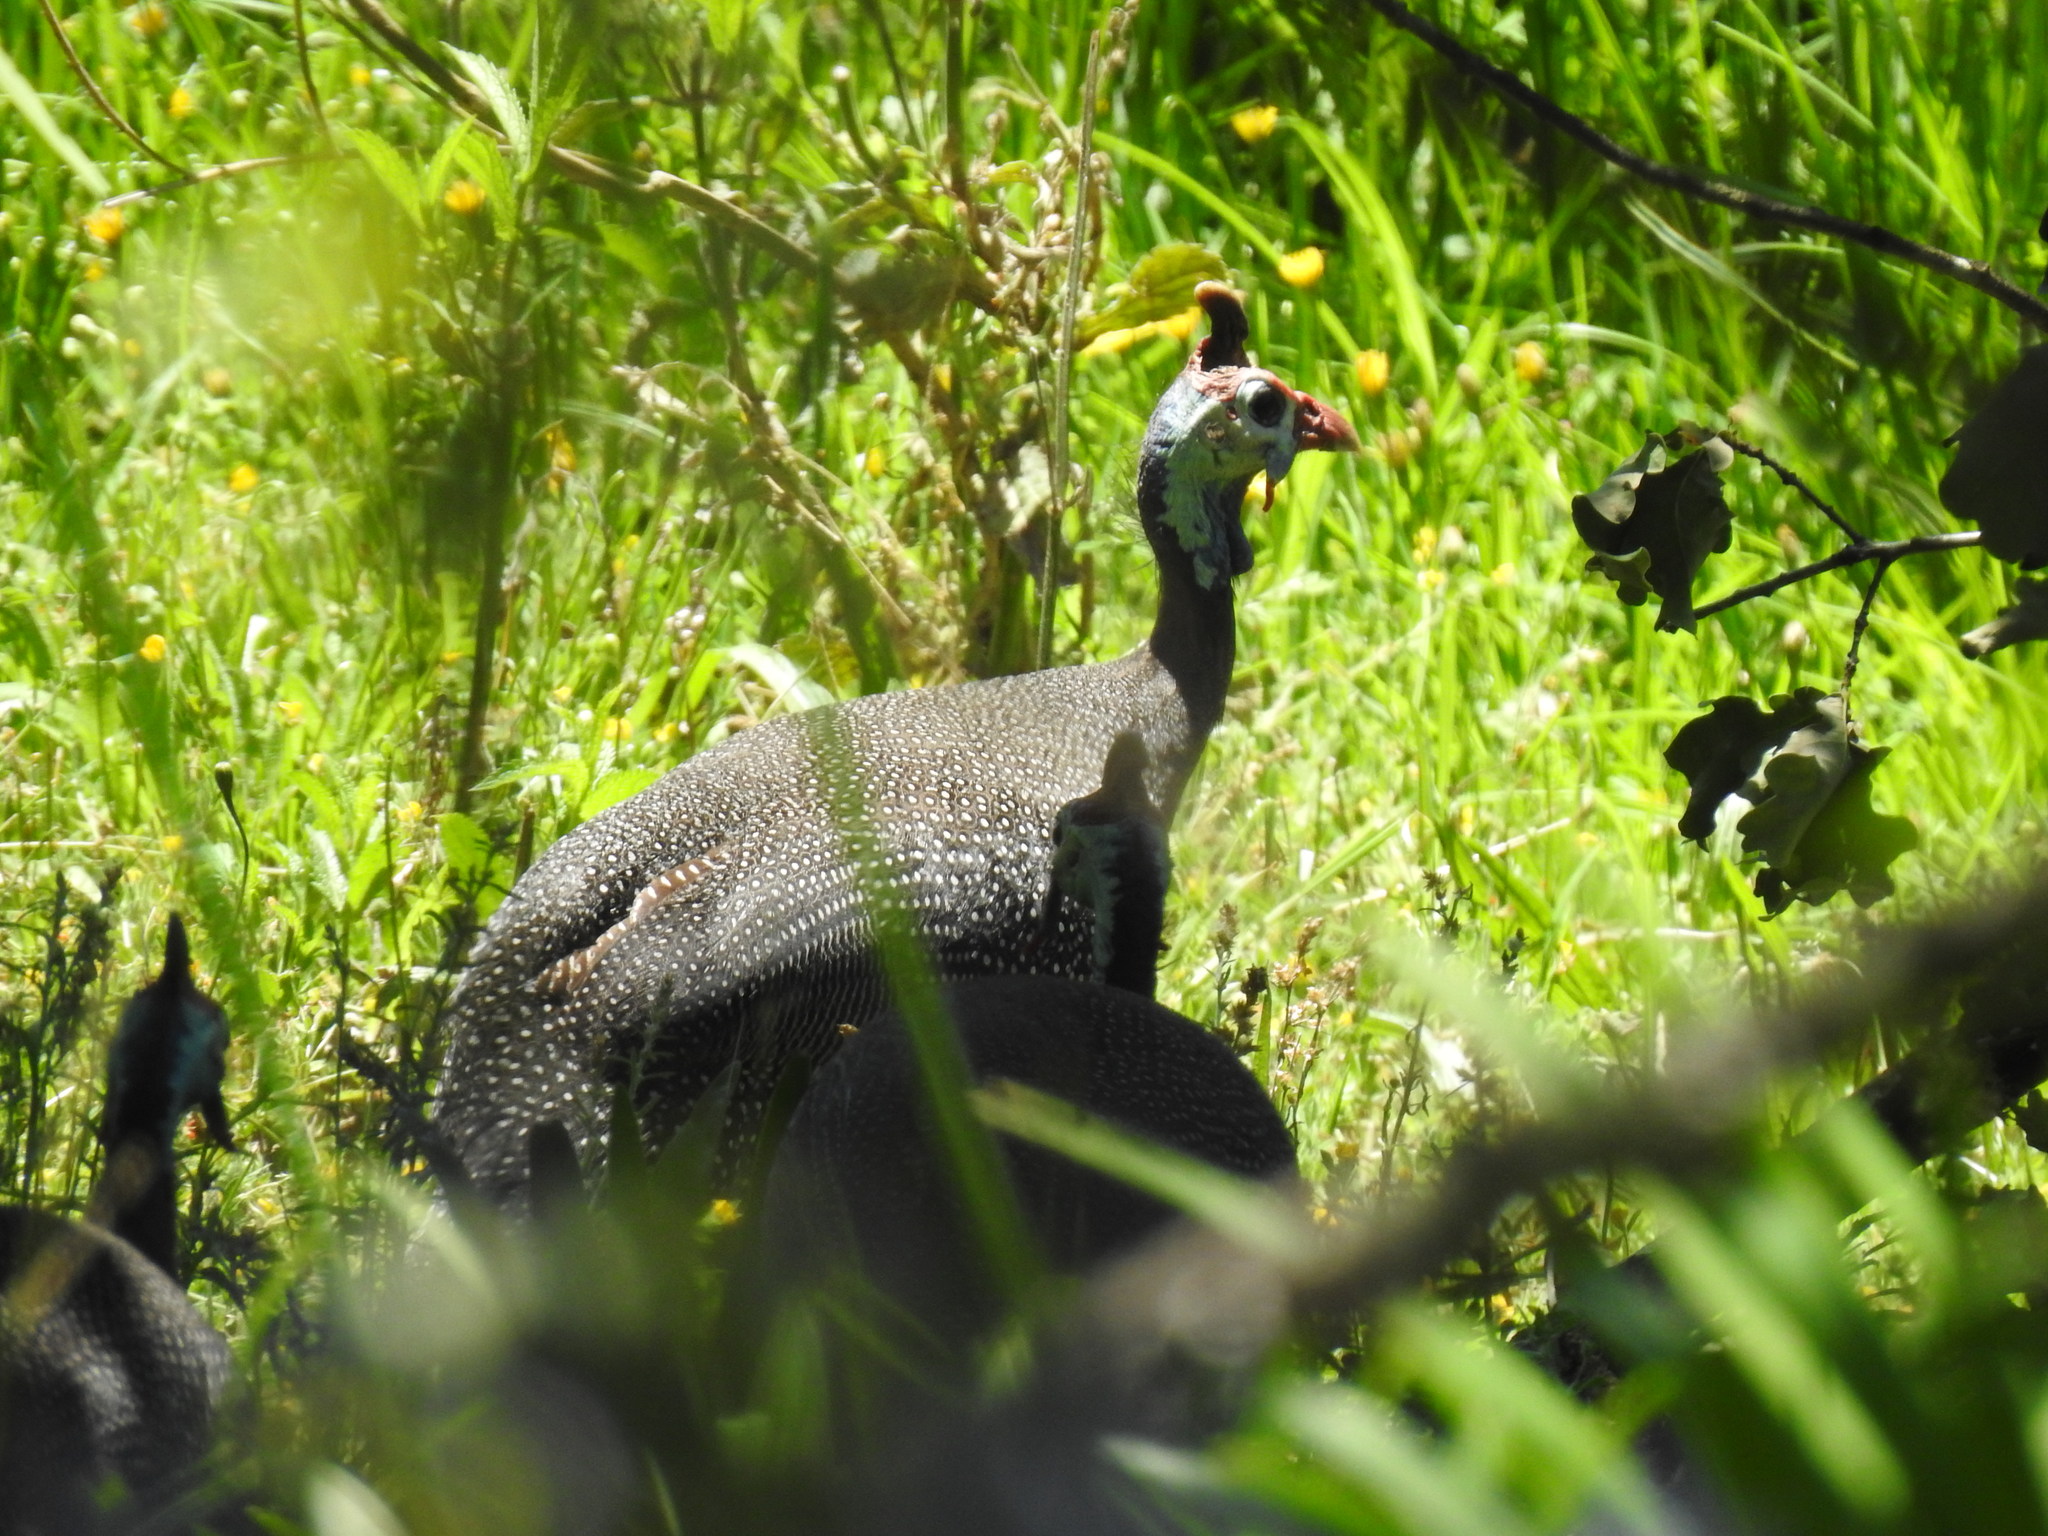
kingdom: Animalia
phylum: Chordata
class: Aves
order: Galliformes
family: Numididae
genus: Numida
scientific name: Numida meleagris
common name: Helmeted guineafowl
